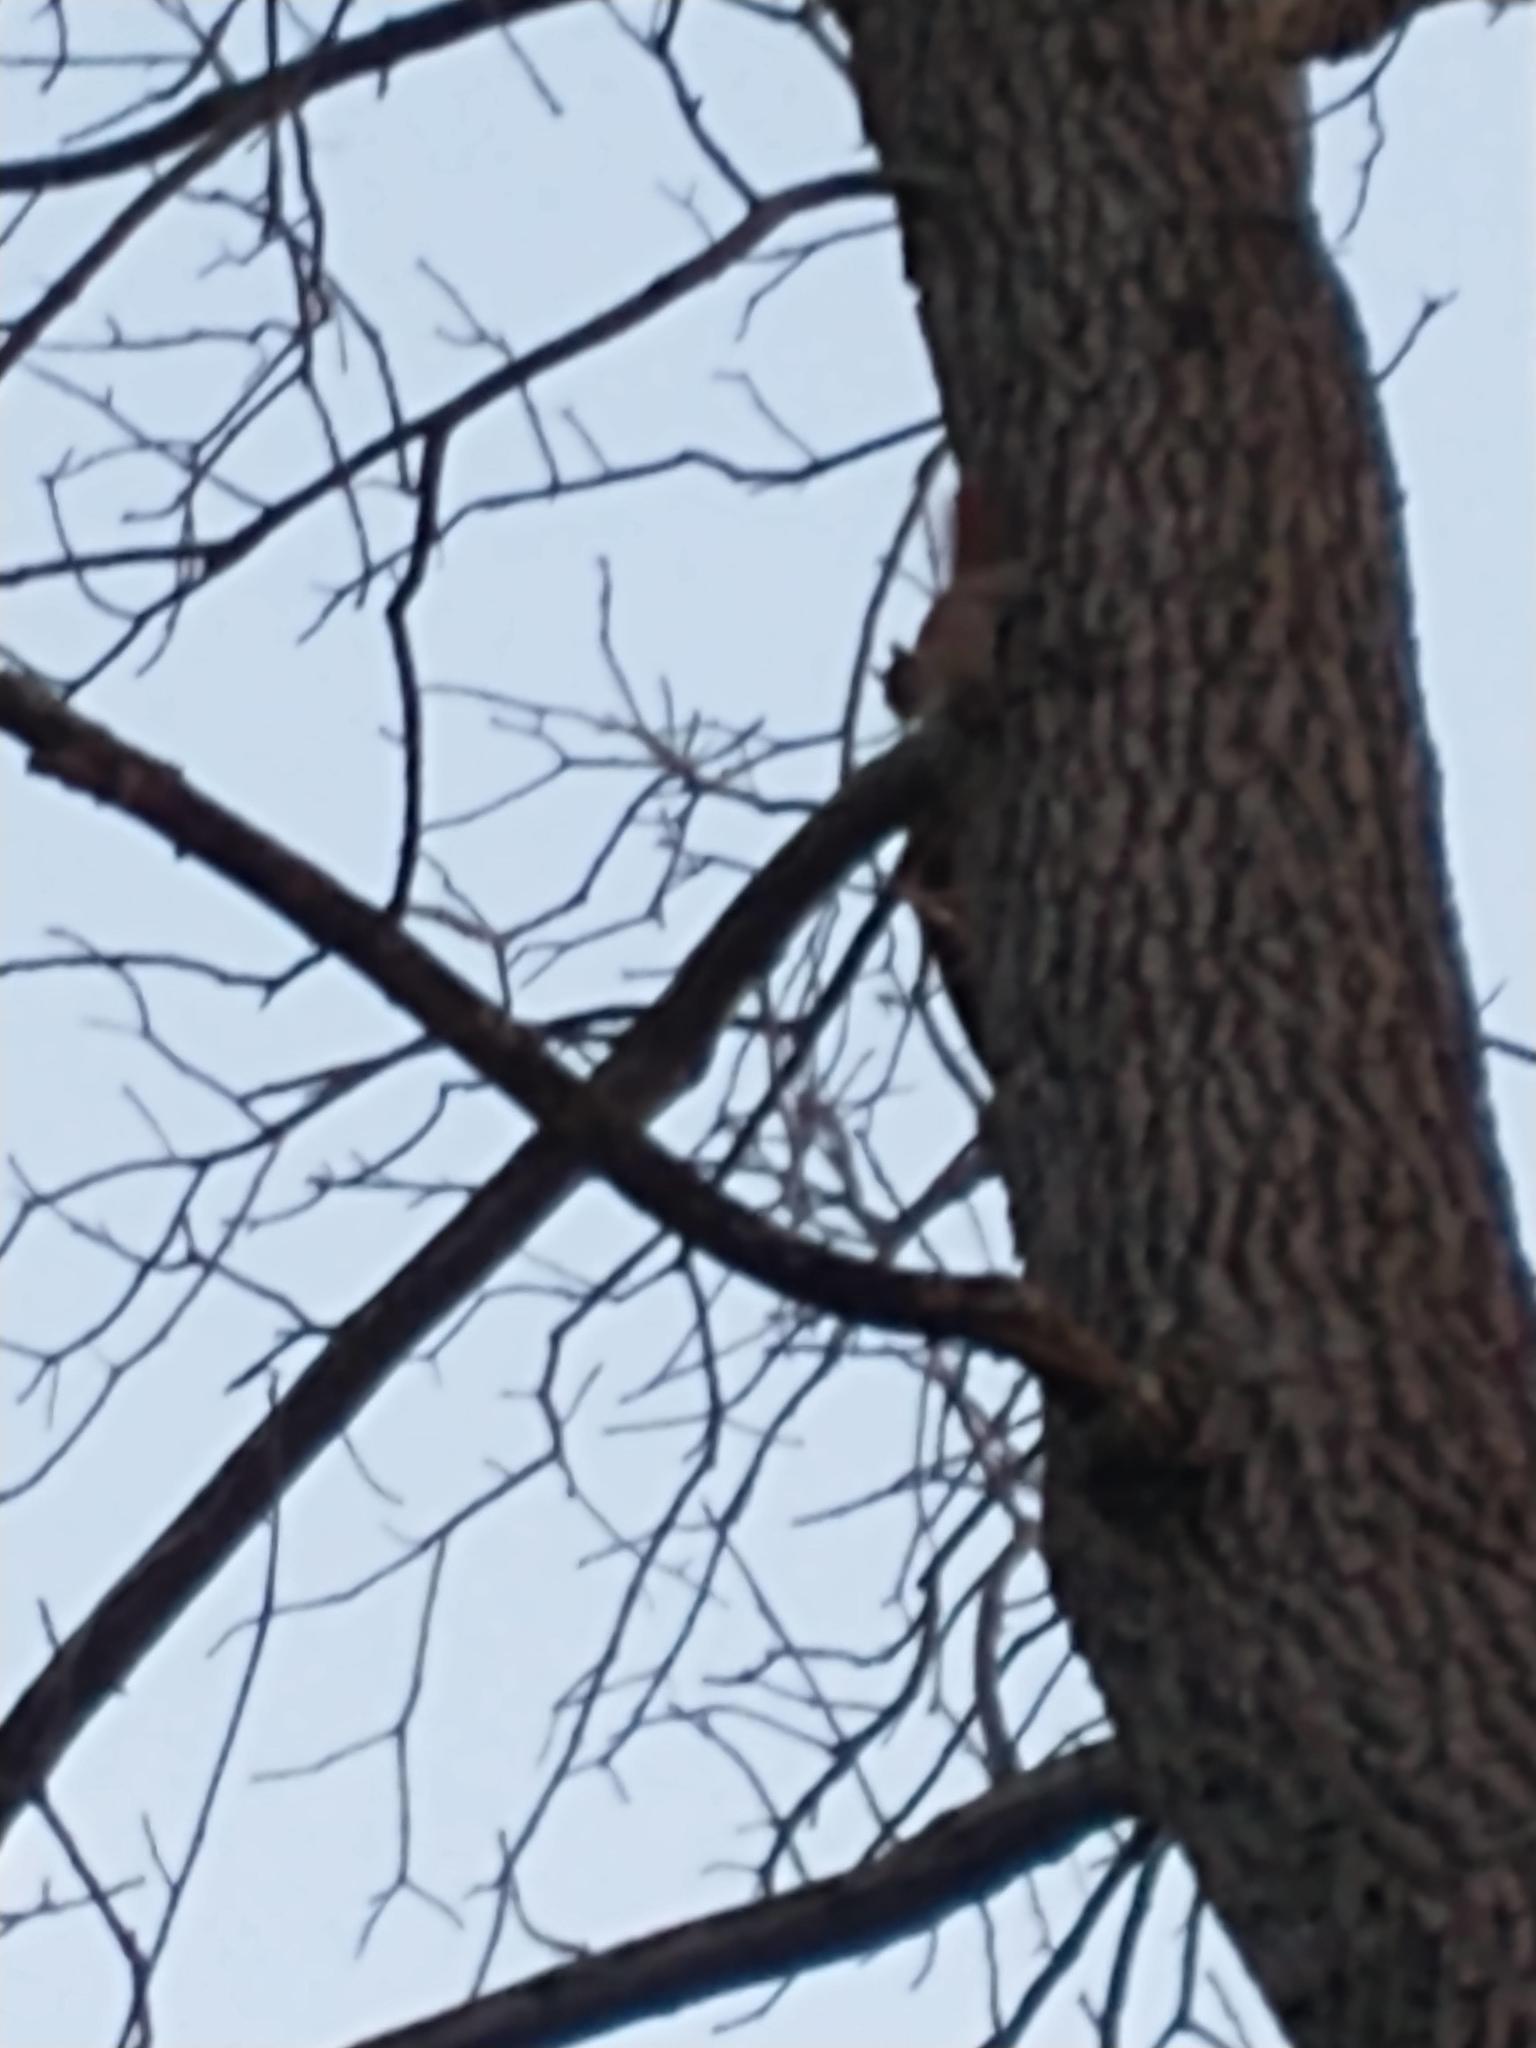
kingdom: Animalia
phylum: Chordata
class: Mammalia
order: Rodentia
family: Sciuridae
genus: Tamiasciurus
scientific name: Tamiasciurus hudsonicus
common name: Red squirrel
